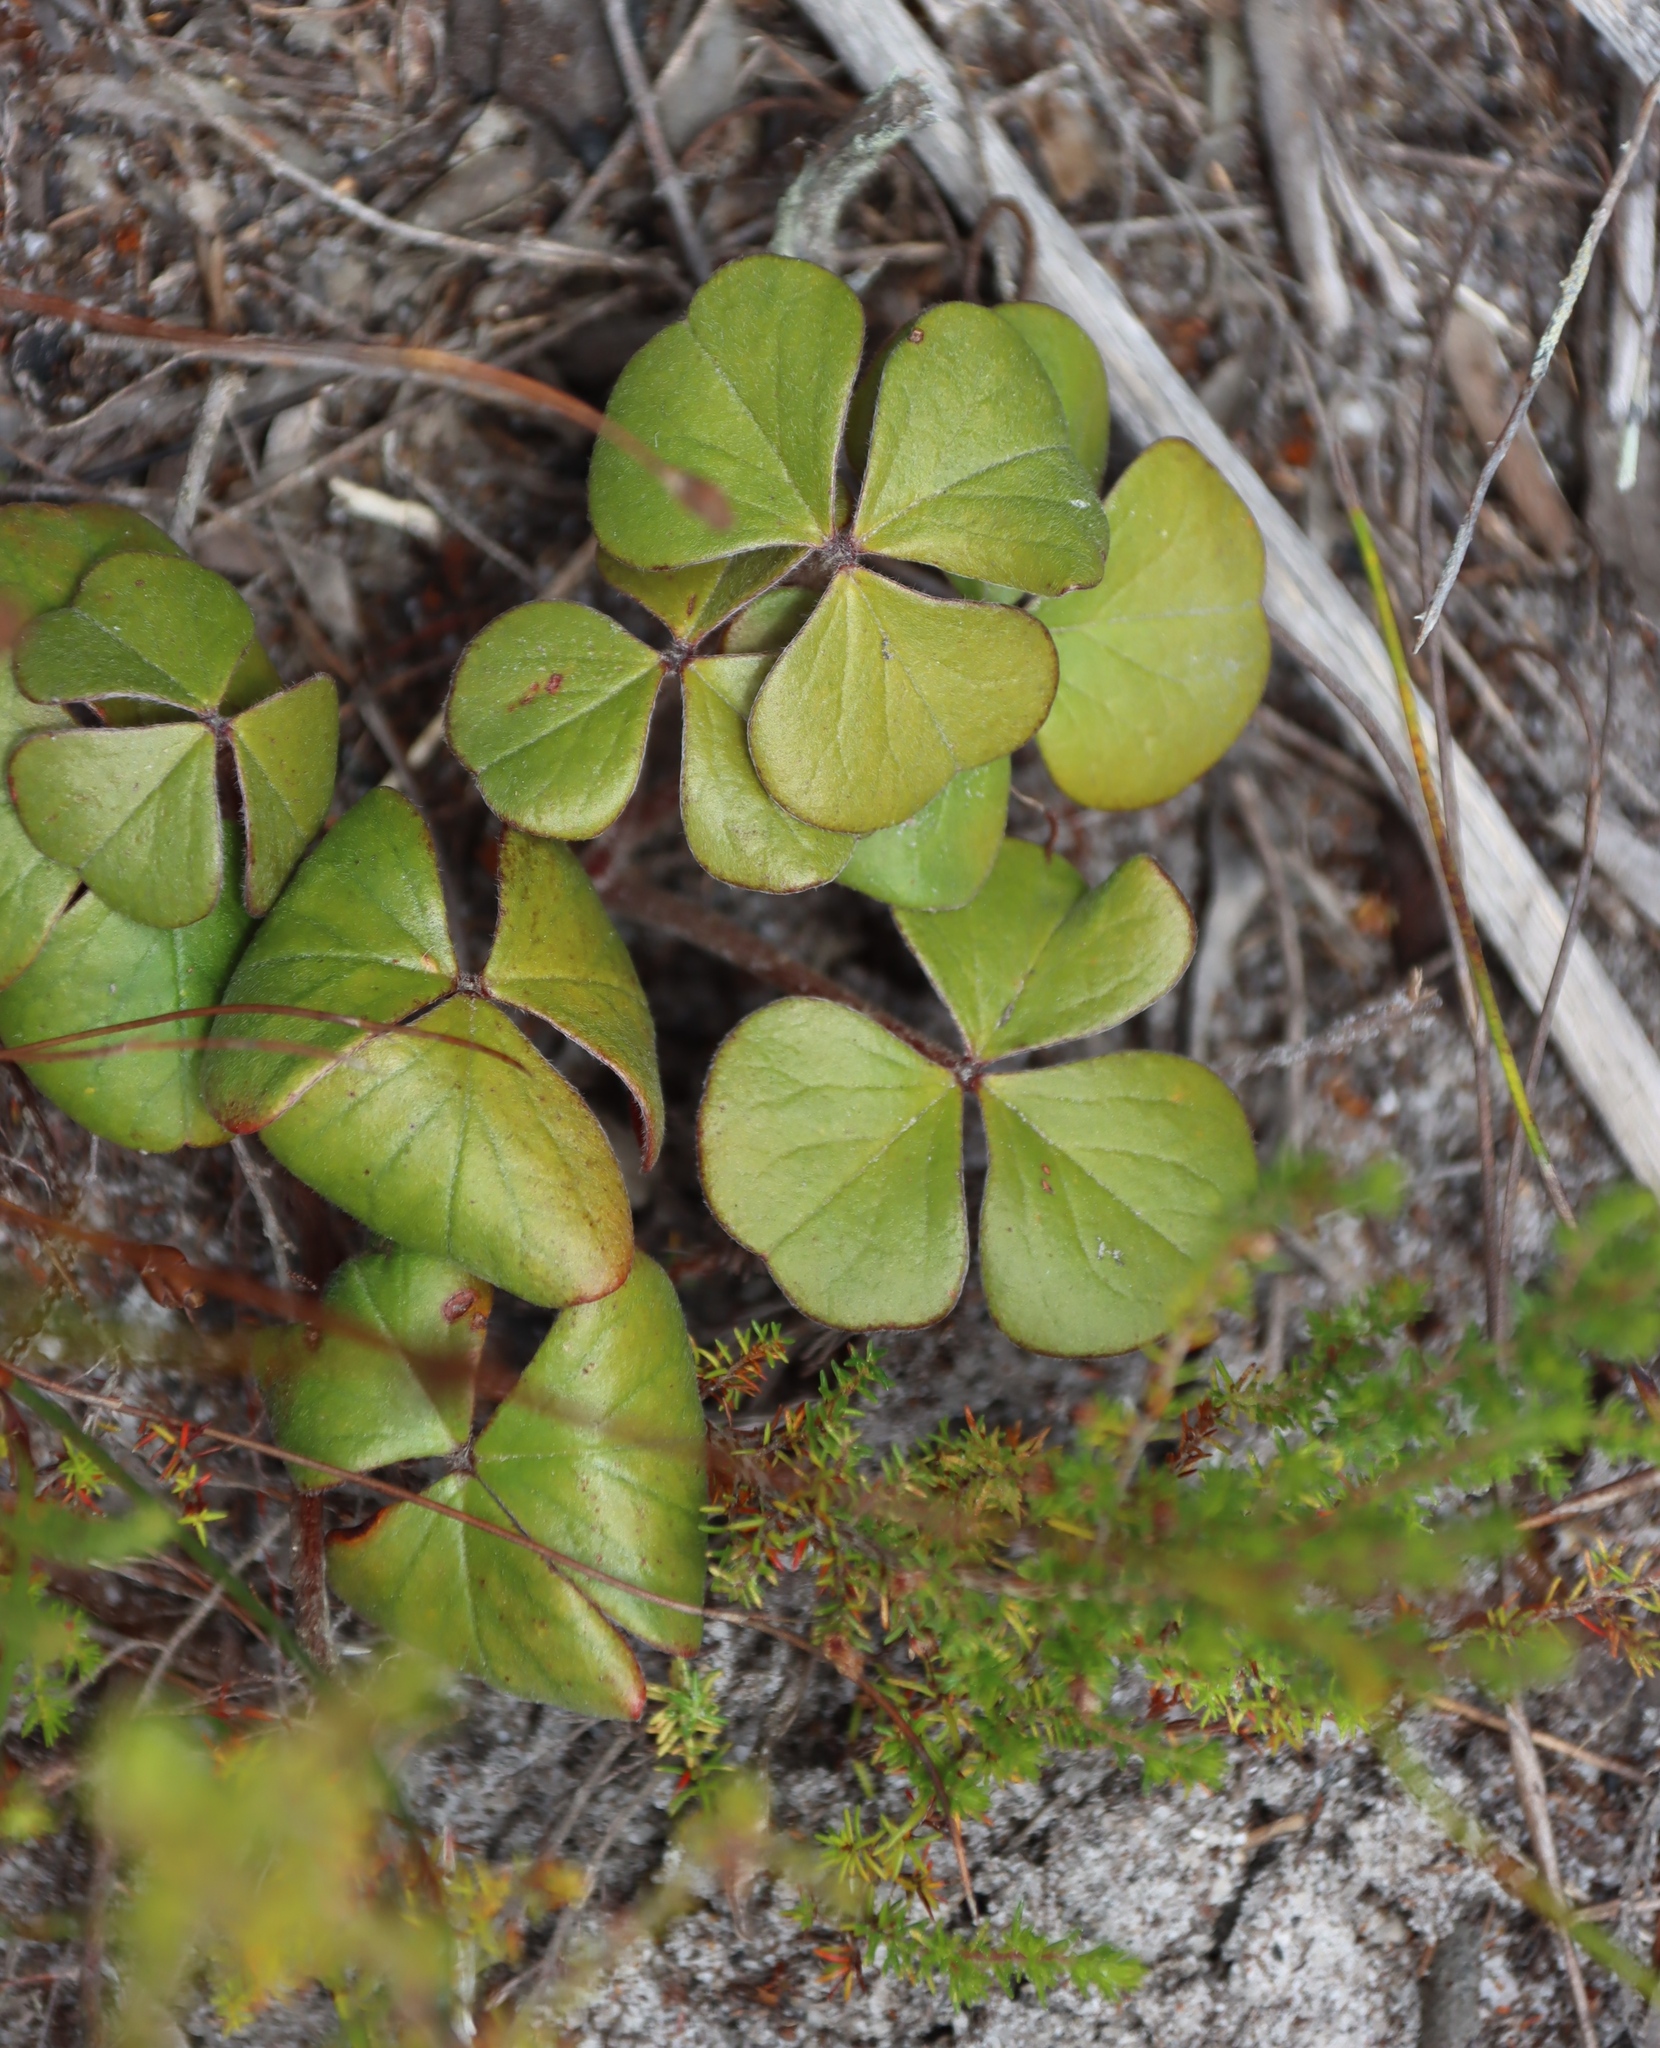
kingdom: Plantae
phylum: Tracheophyta
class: Magnoliopsida
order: Oxalidales
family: Oxalidaceae
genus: Oxalis
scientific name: Oxalis truncatula
